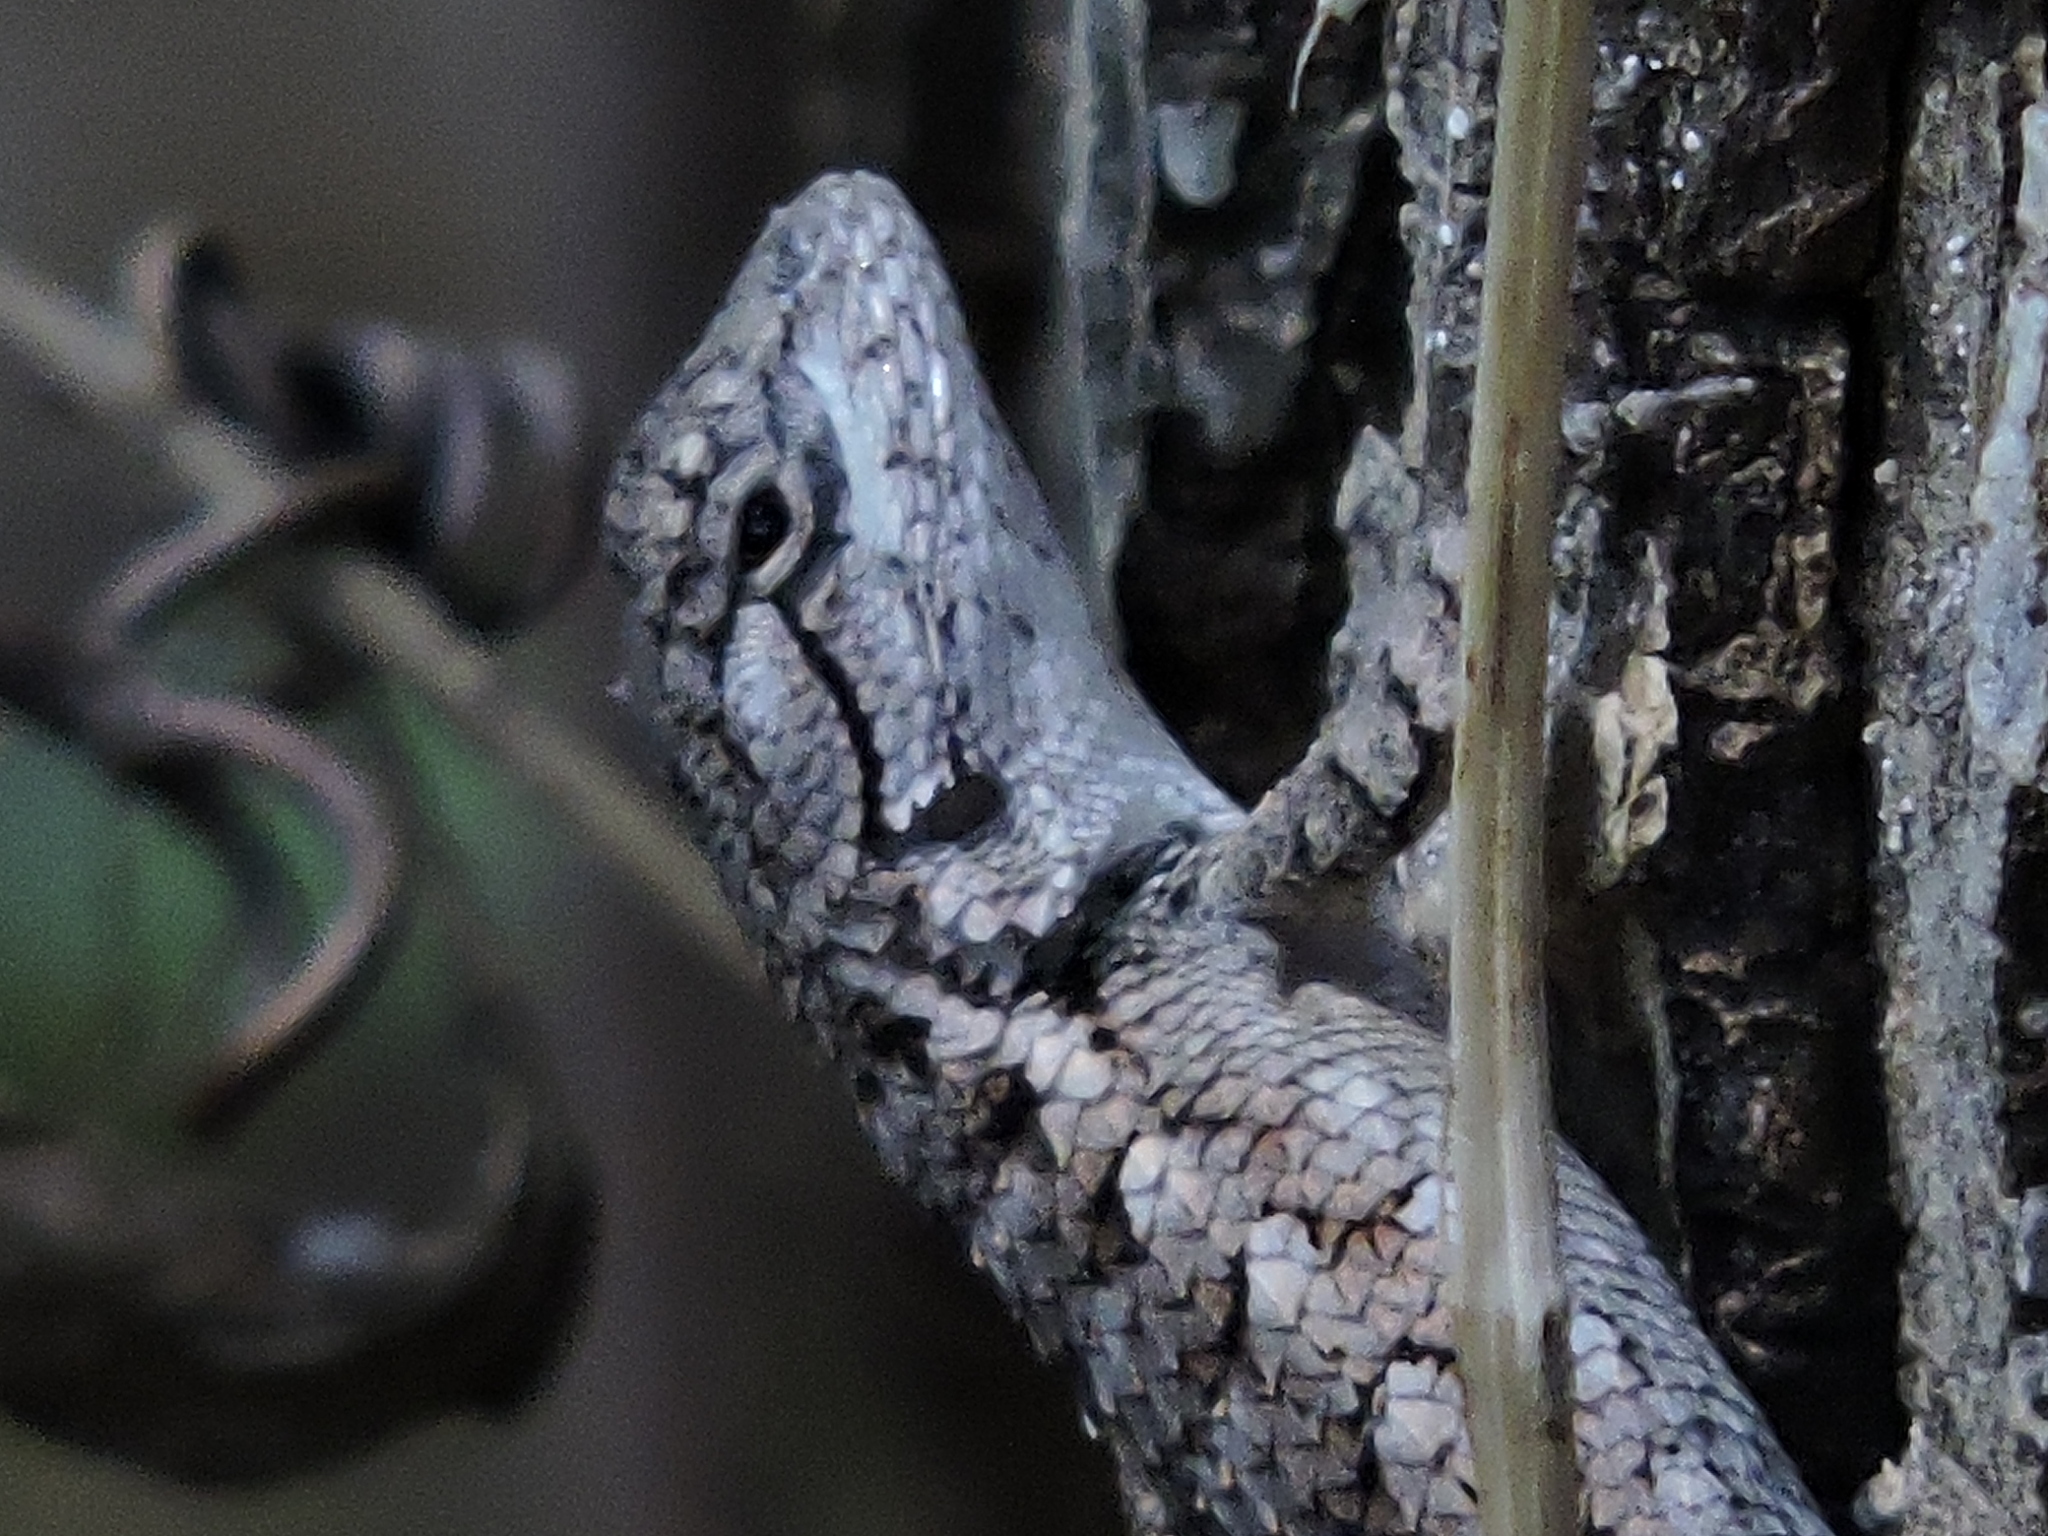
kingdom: Animalia
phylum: Chordata
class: Squamata
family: Phrynosomatidae
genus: Sceloporus
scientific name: Sceloporus olivaceus
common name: Texas spiny lizard
